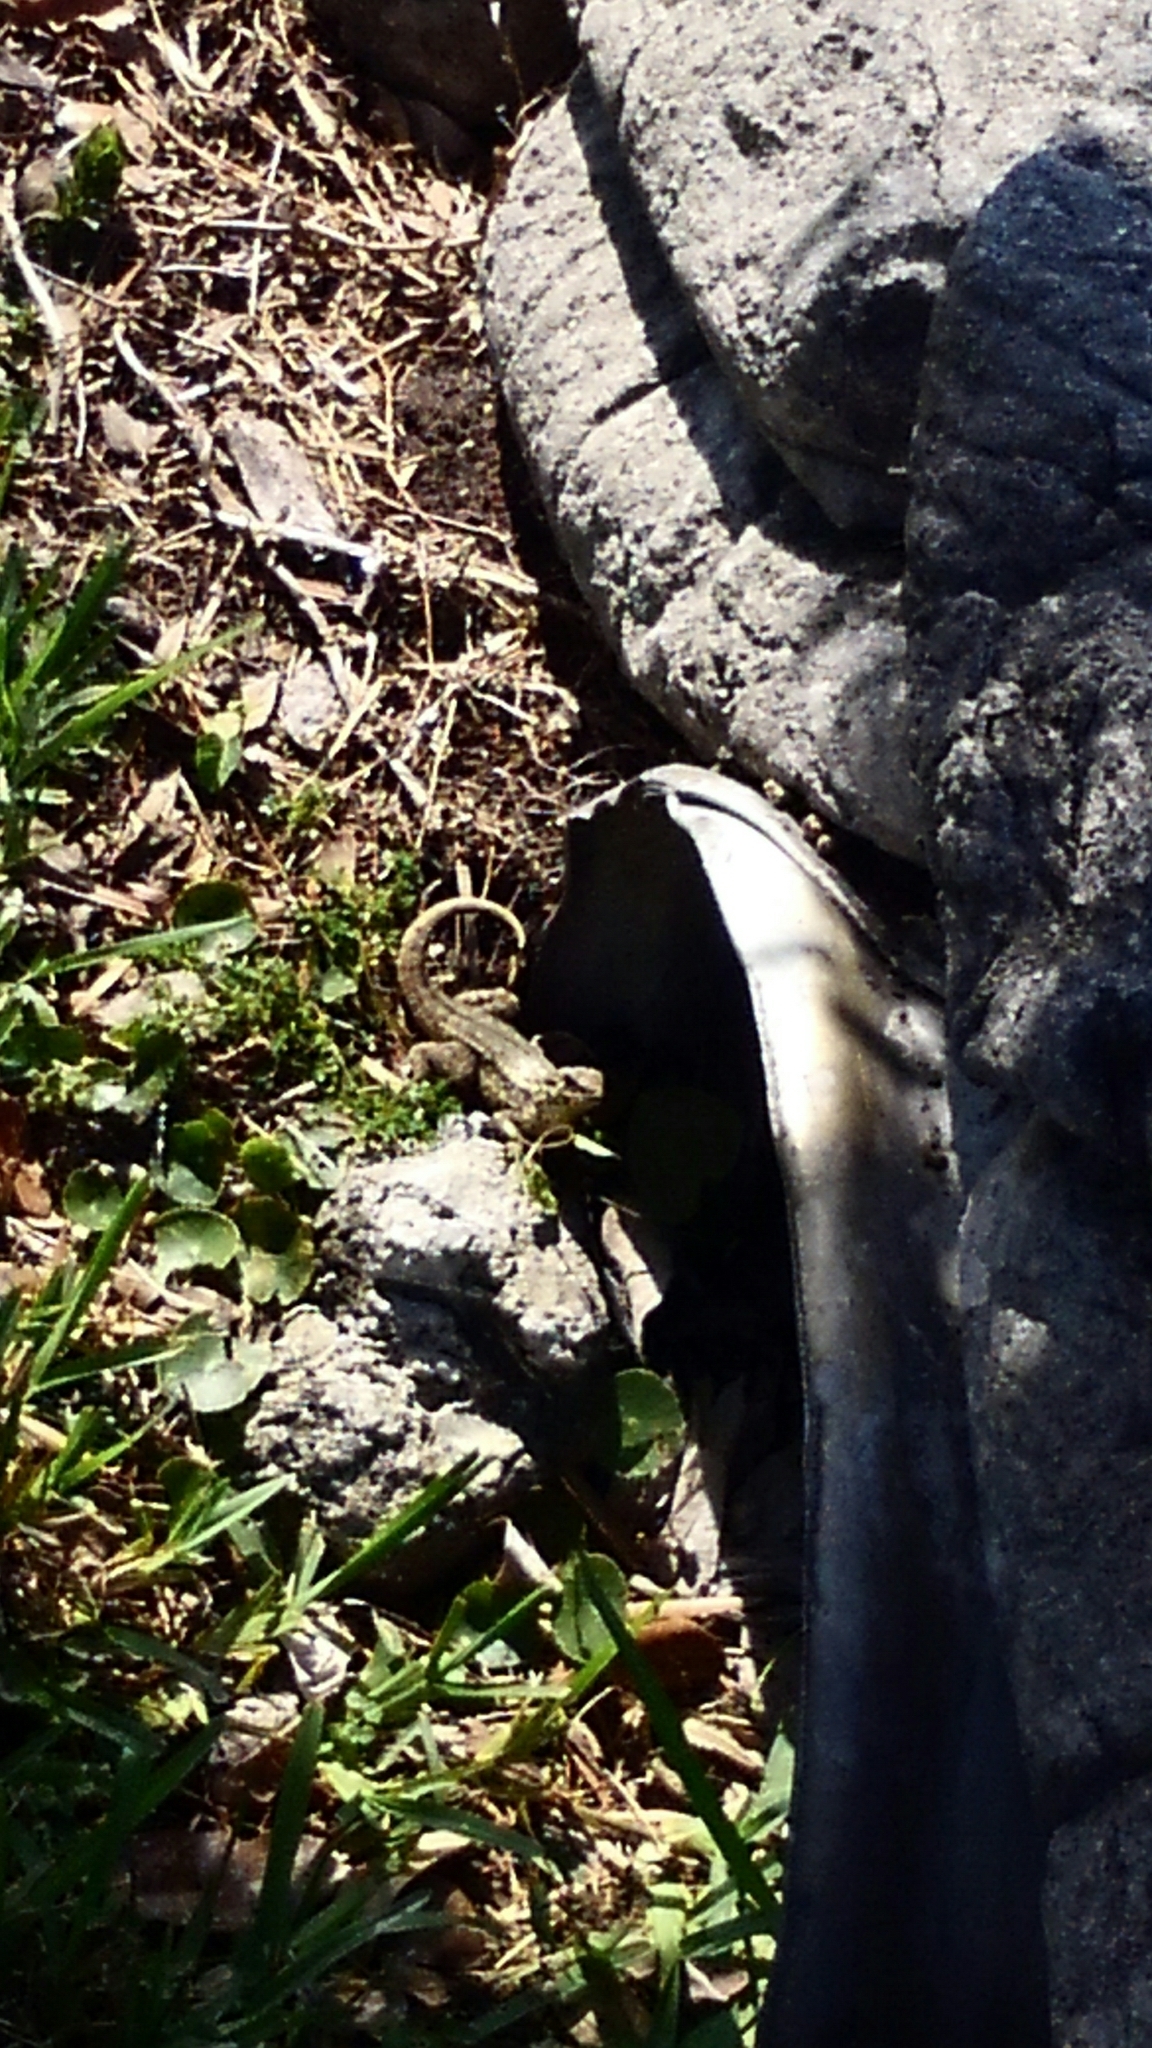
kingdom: Animalia
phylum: Chordata
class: Squamata
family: Leiocephalidae
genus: Leiocephalus
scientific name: Leiocephalus carinatus
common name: Northern curly-tailed lizard
